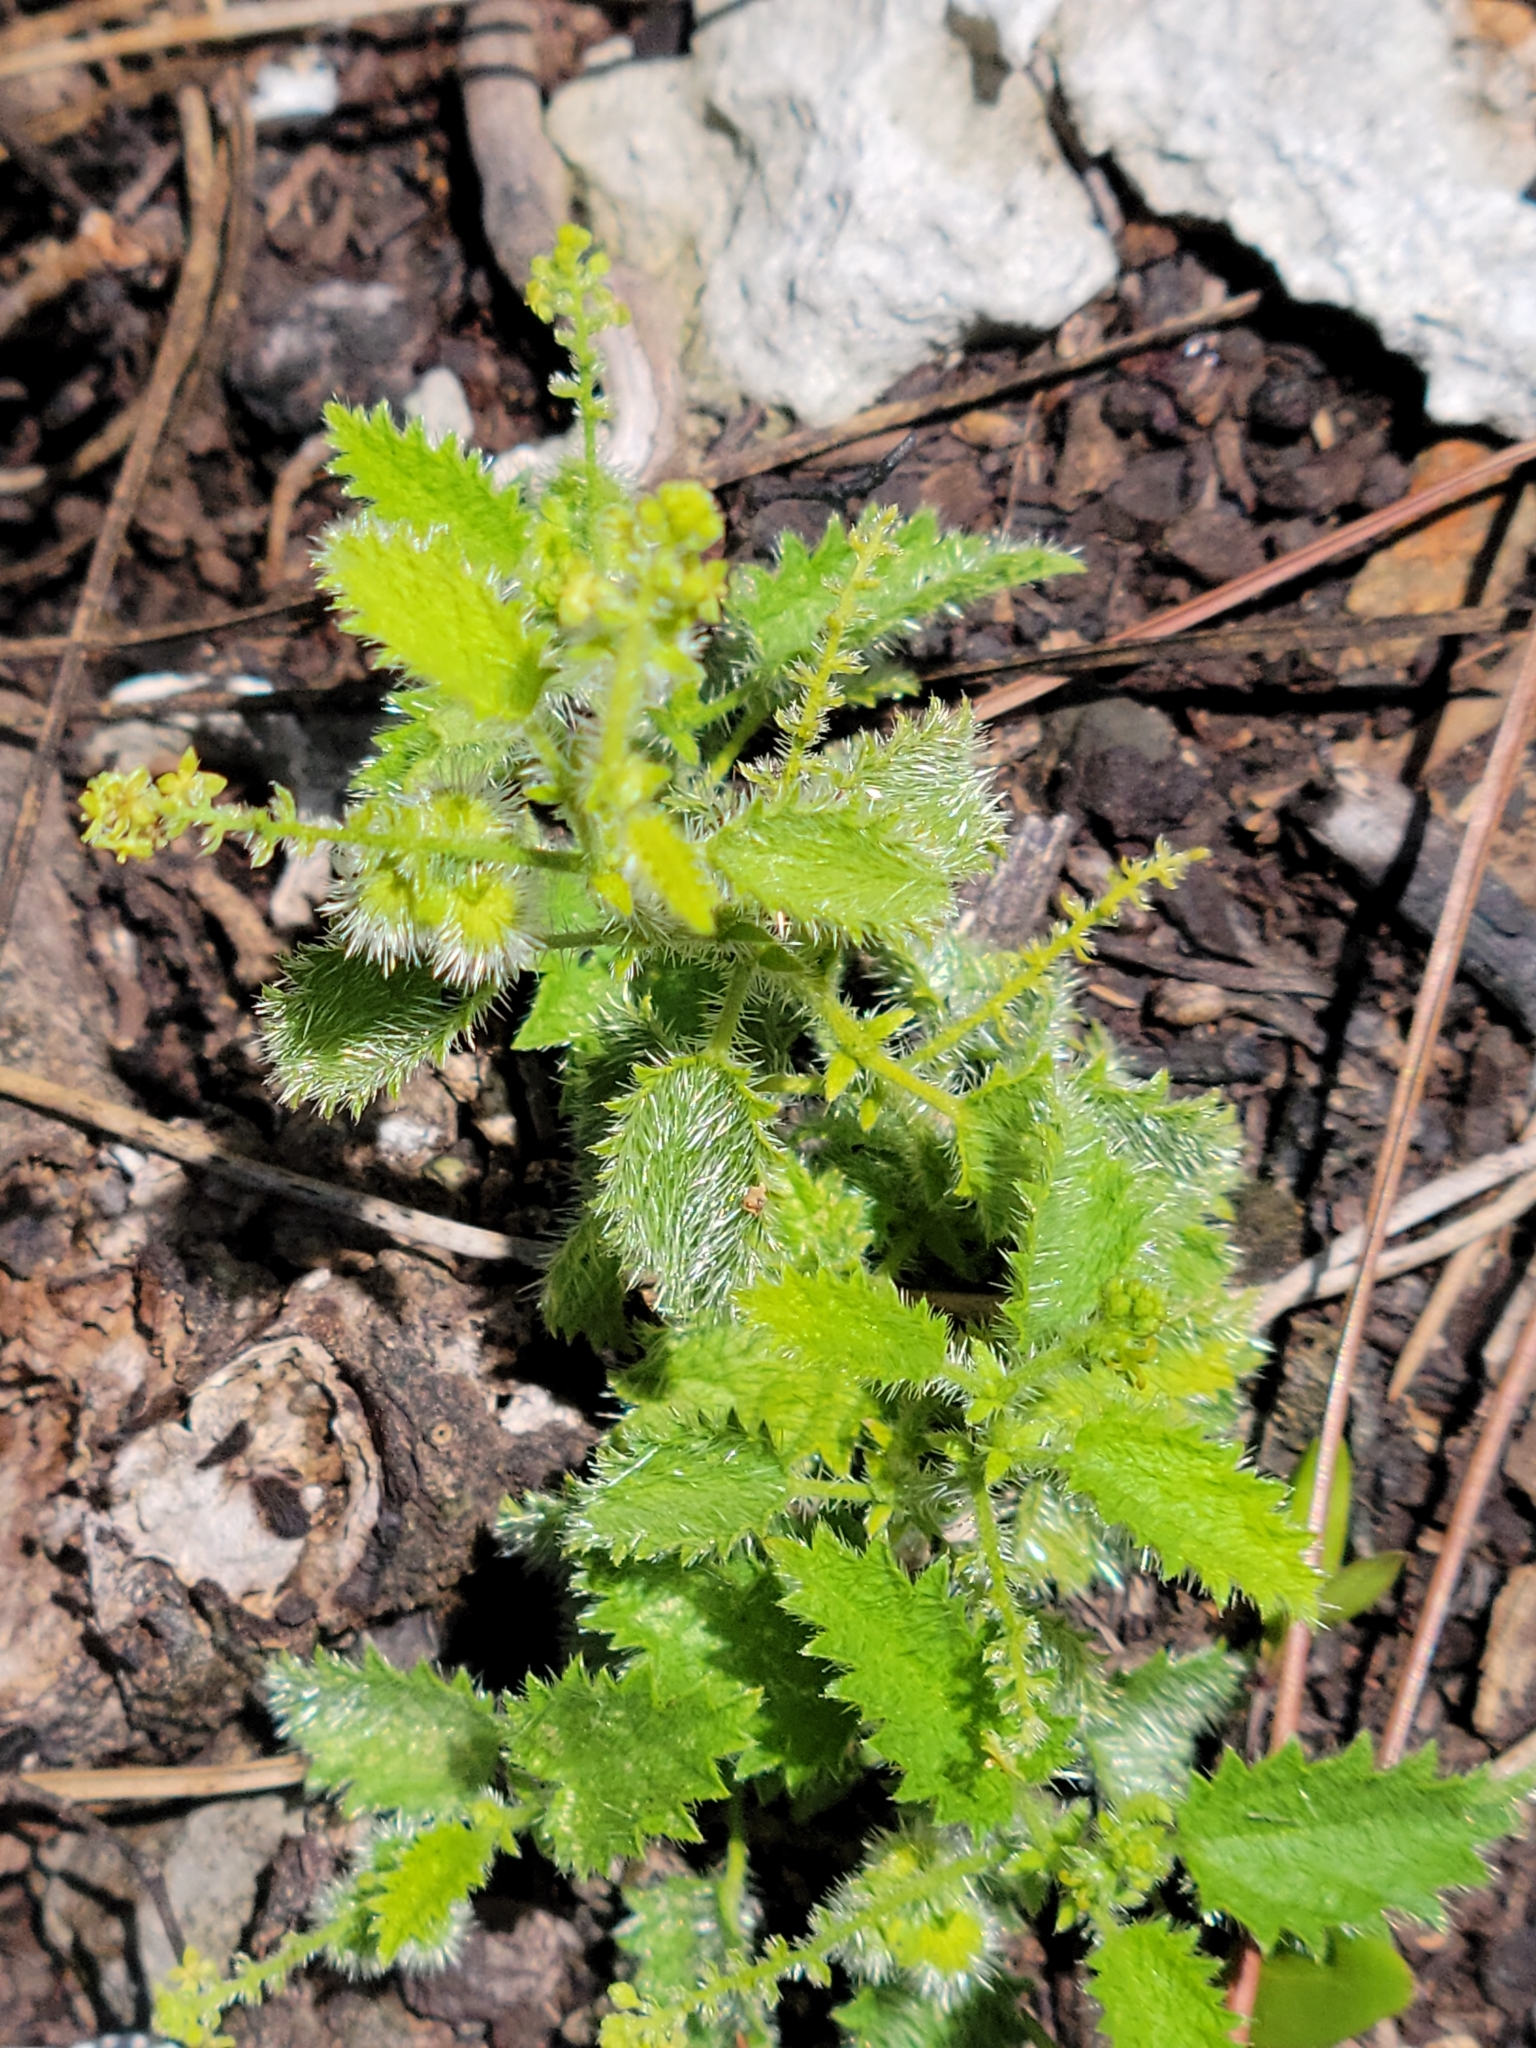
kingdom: Plantae
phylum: Tracheophyta
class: Magnoliopsida
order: Malpighiales
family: Euphorbiaceae
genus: Tragia
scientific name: Tragia saxicola
